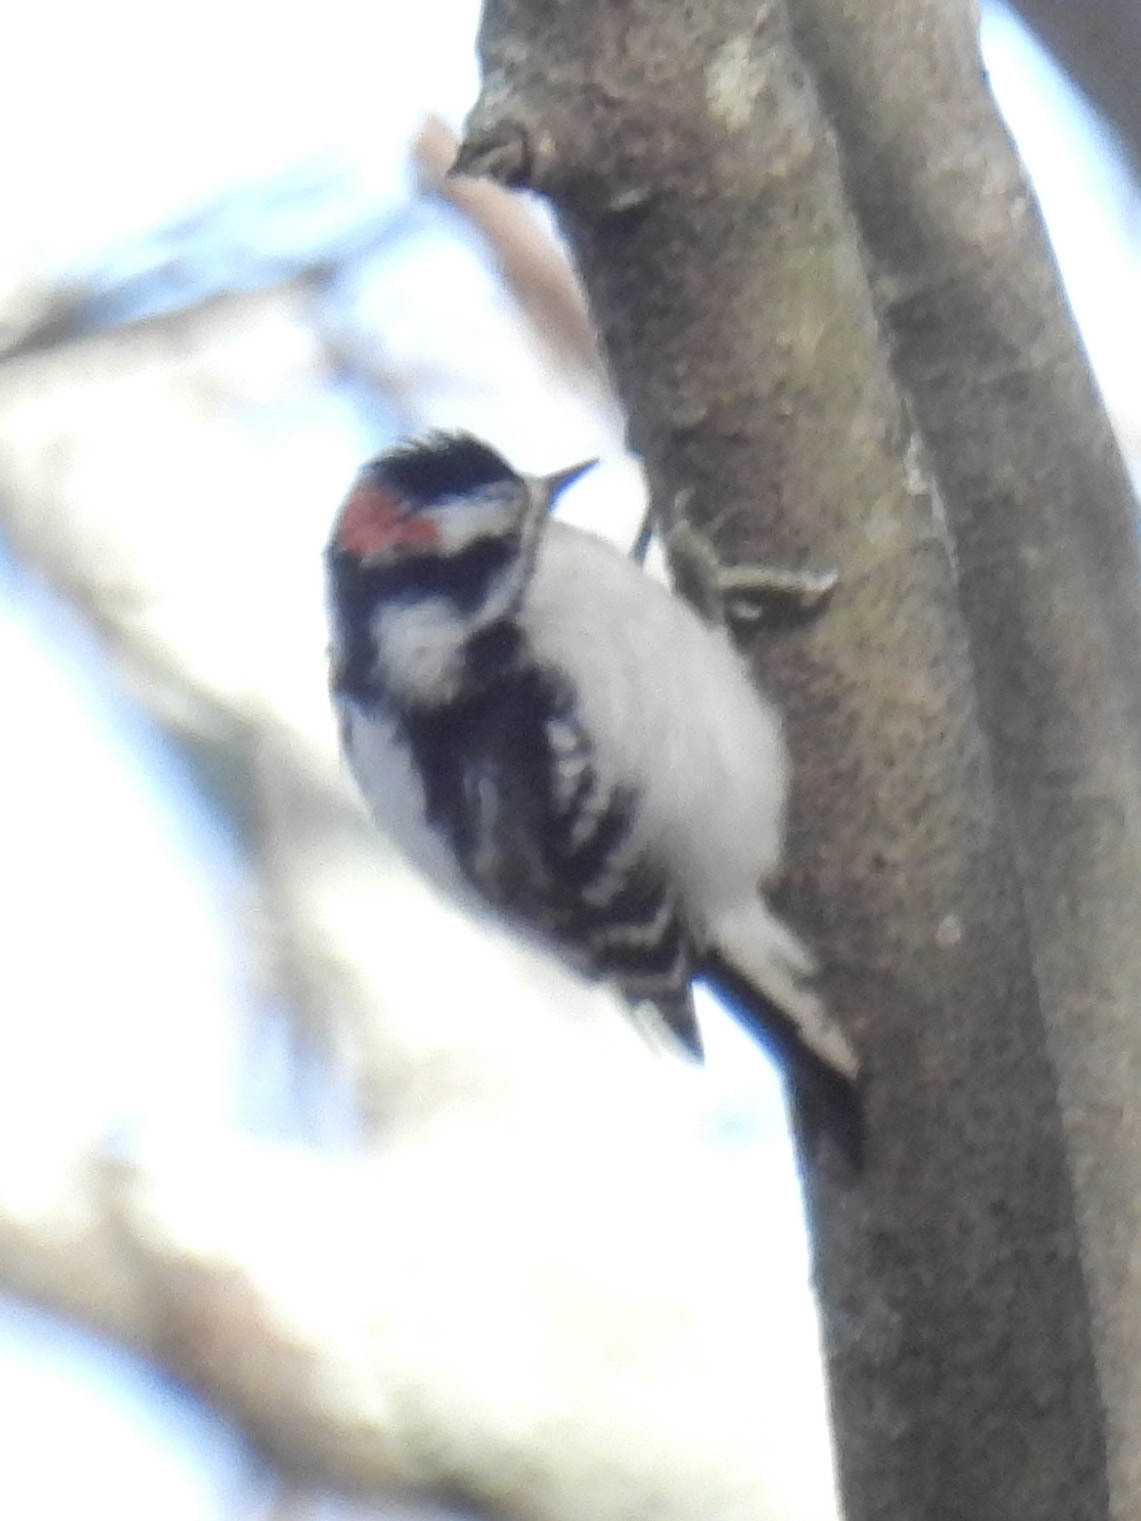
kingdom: Animalia
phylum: Chordata
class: Aves
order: Piciformes
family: Picidae
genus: Dryobates
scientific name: Dryobates pubescens
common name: Downy woodpecker
